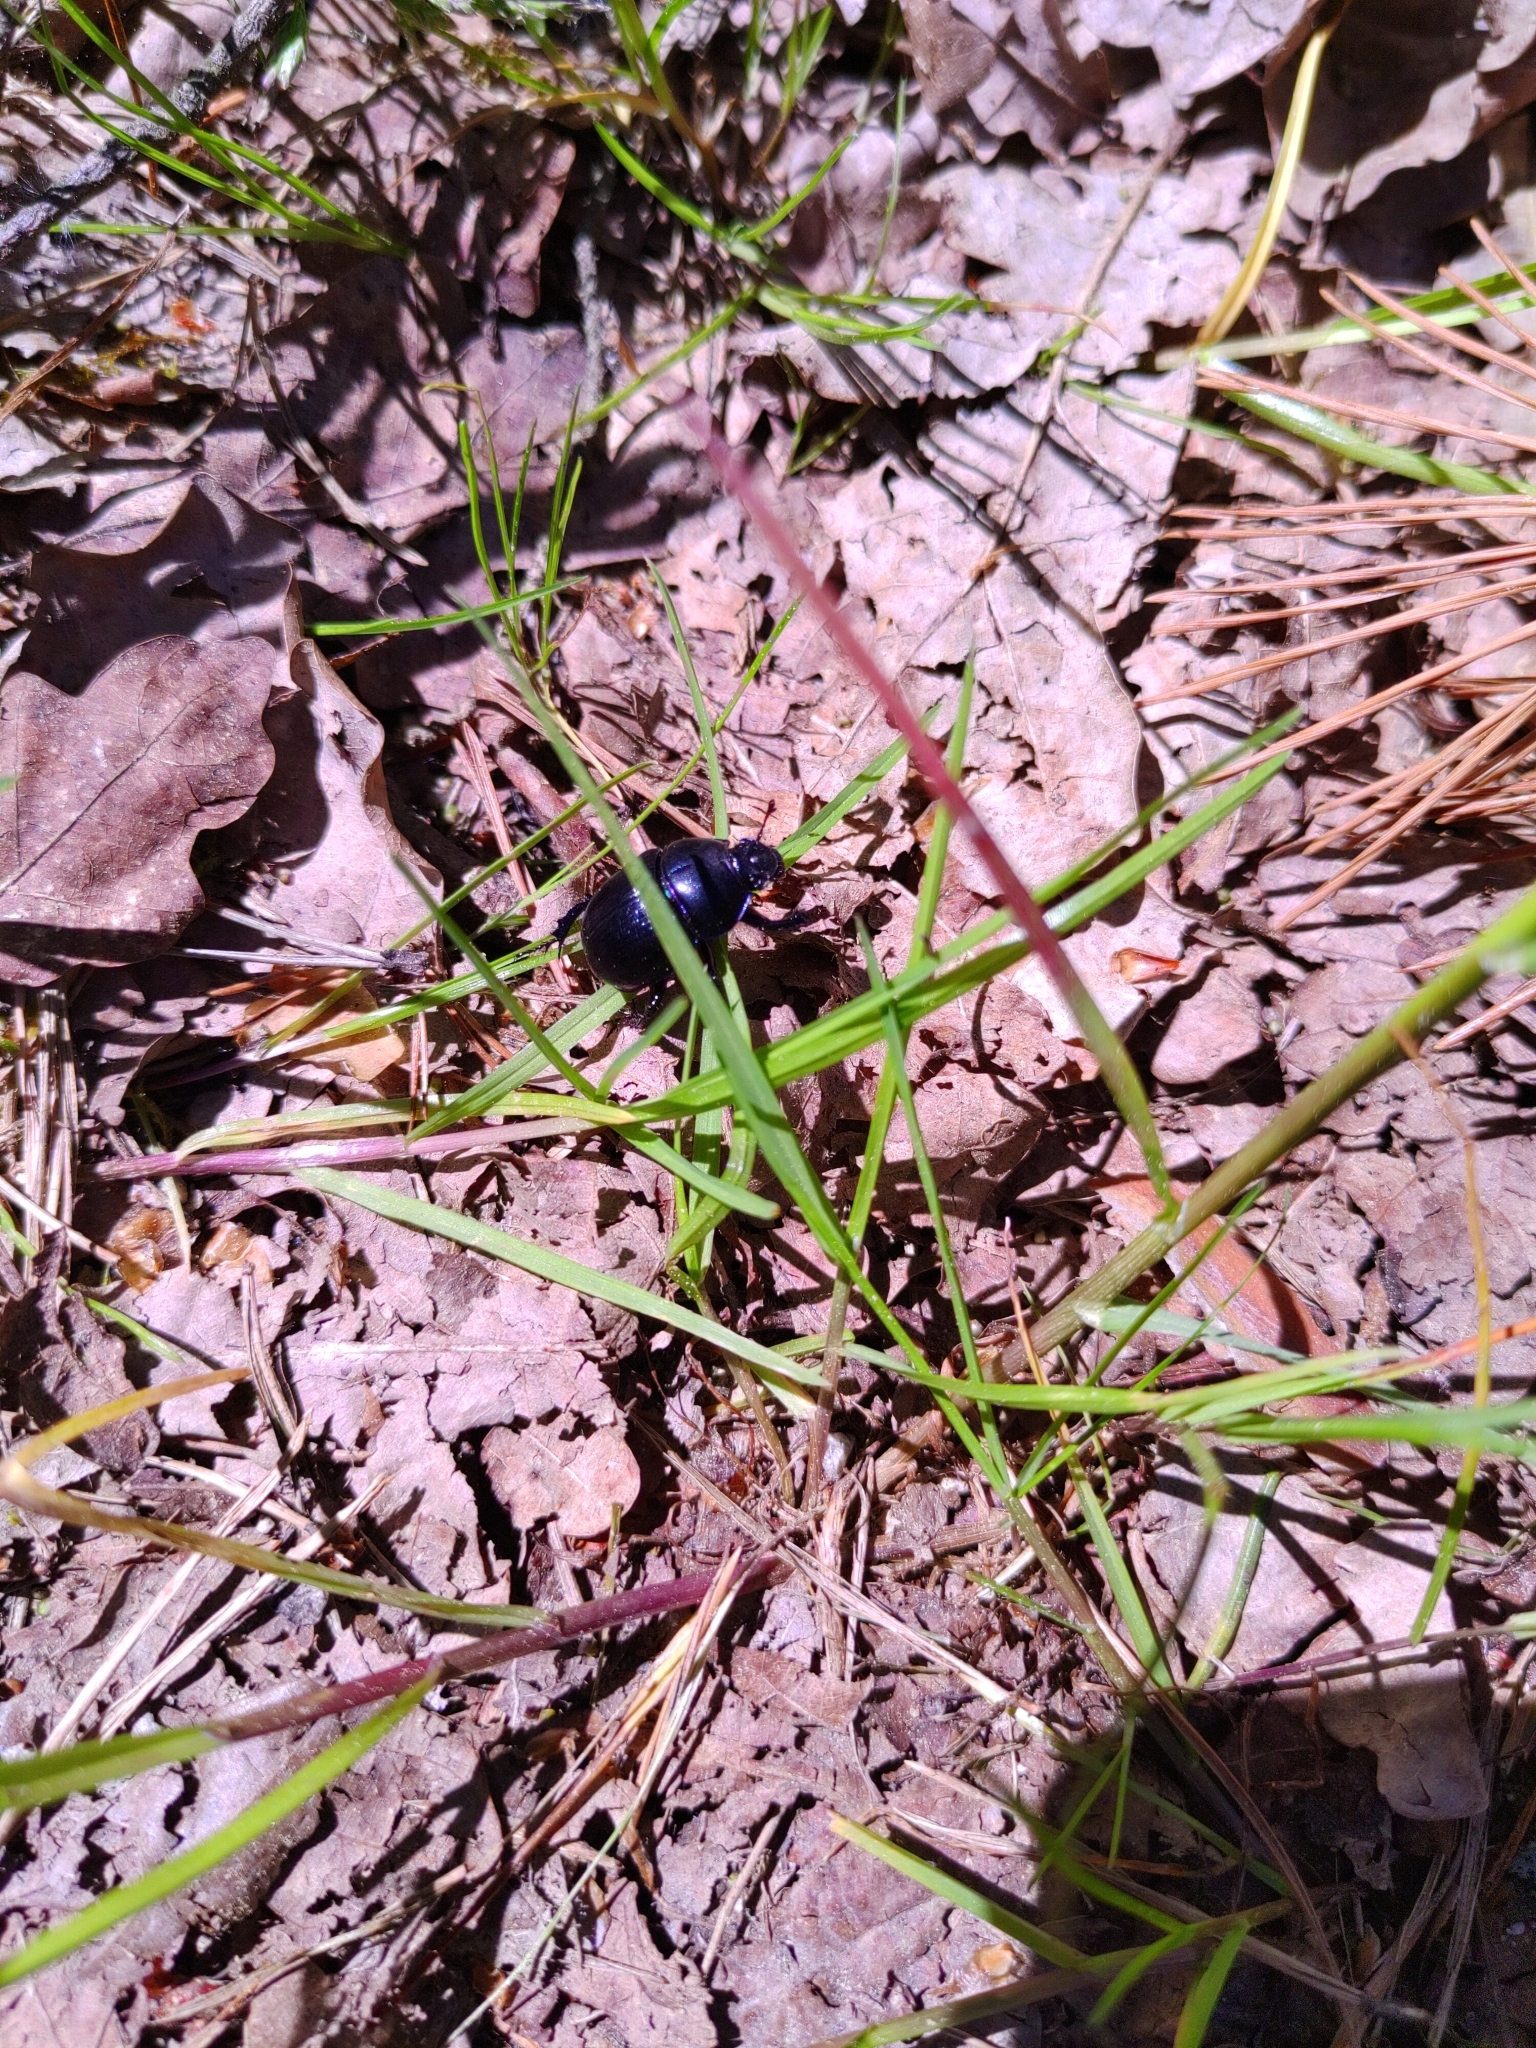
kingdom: Animalia
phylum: Arthropoda
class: Insecta
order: Coleoptera
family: Geotrupidae
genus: Anoplotrupes
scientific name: Anoplotrupes stercorosus
